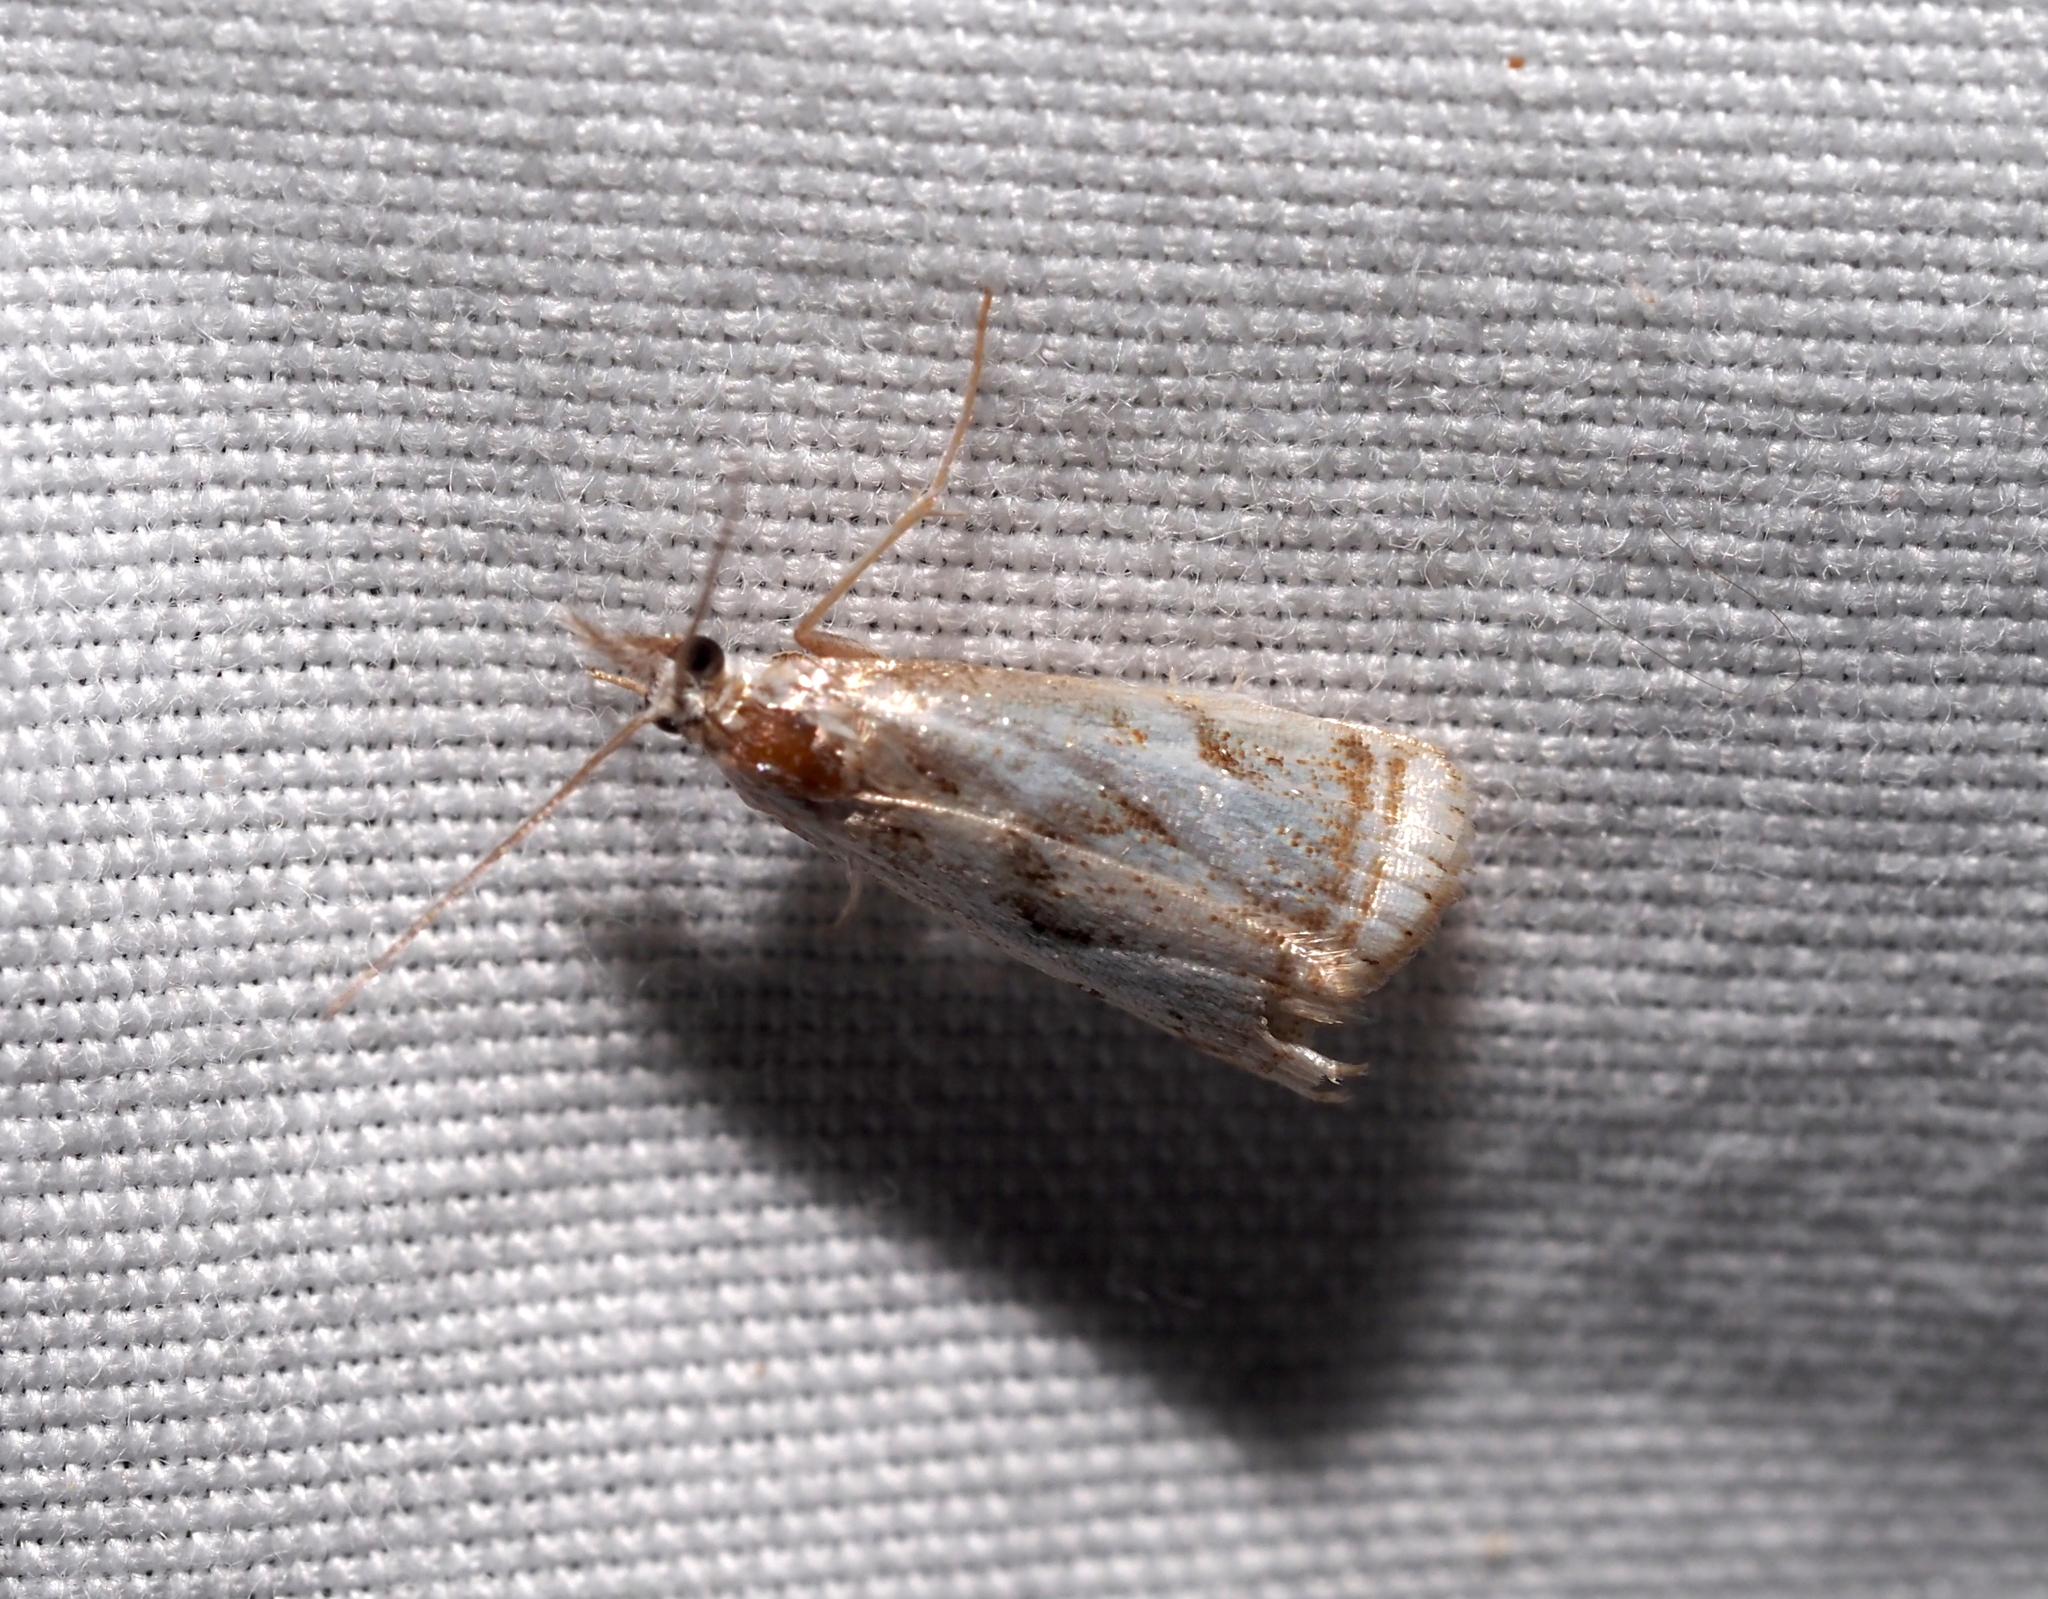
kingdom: Animalia
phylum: Arthropoda
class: Insecta
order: Lepidoptera
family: Crambidae
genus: Microcrambus
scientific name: Microcrambus elegans
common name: Elegant grass-veneer
